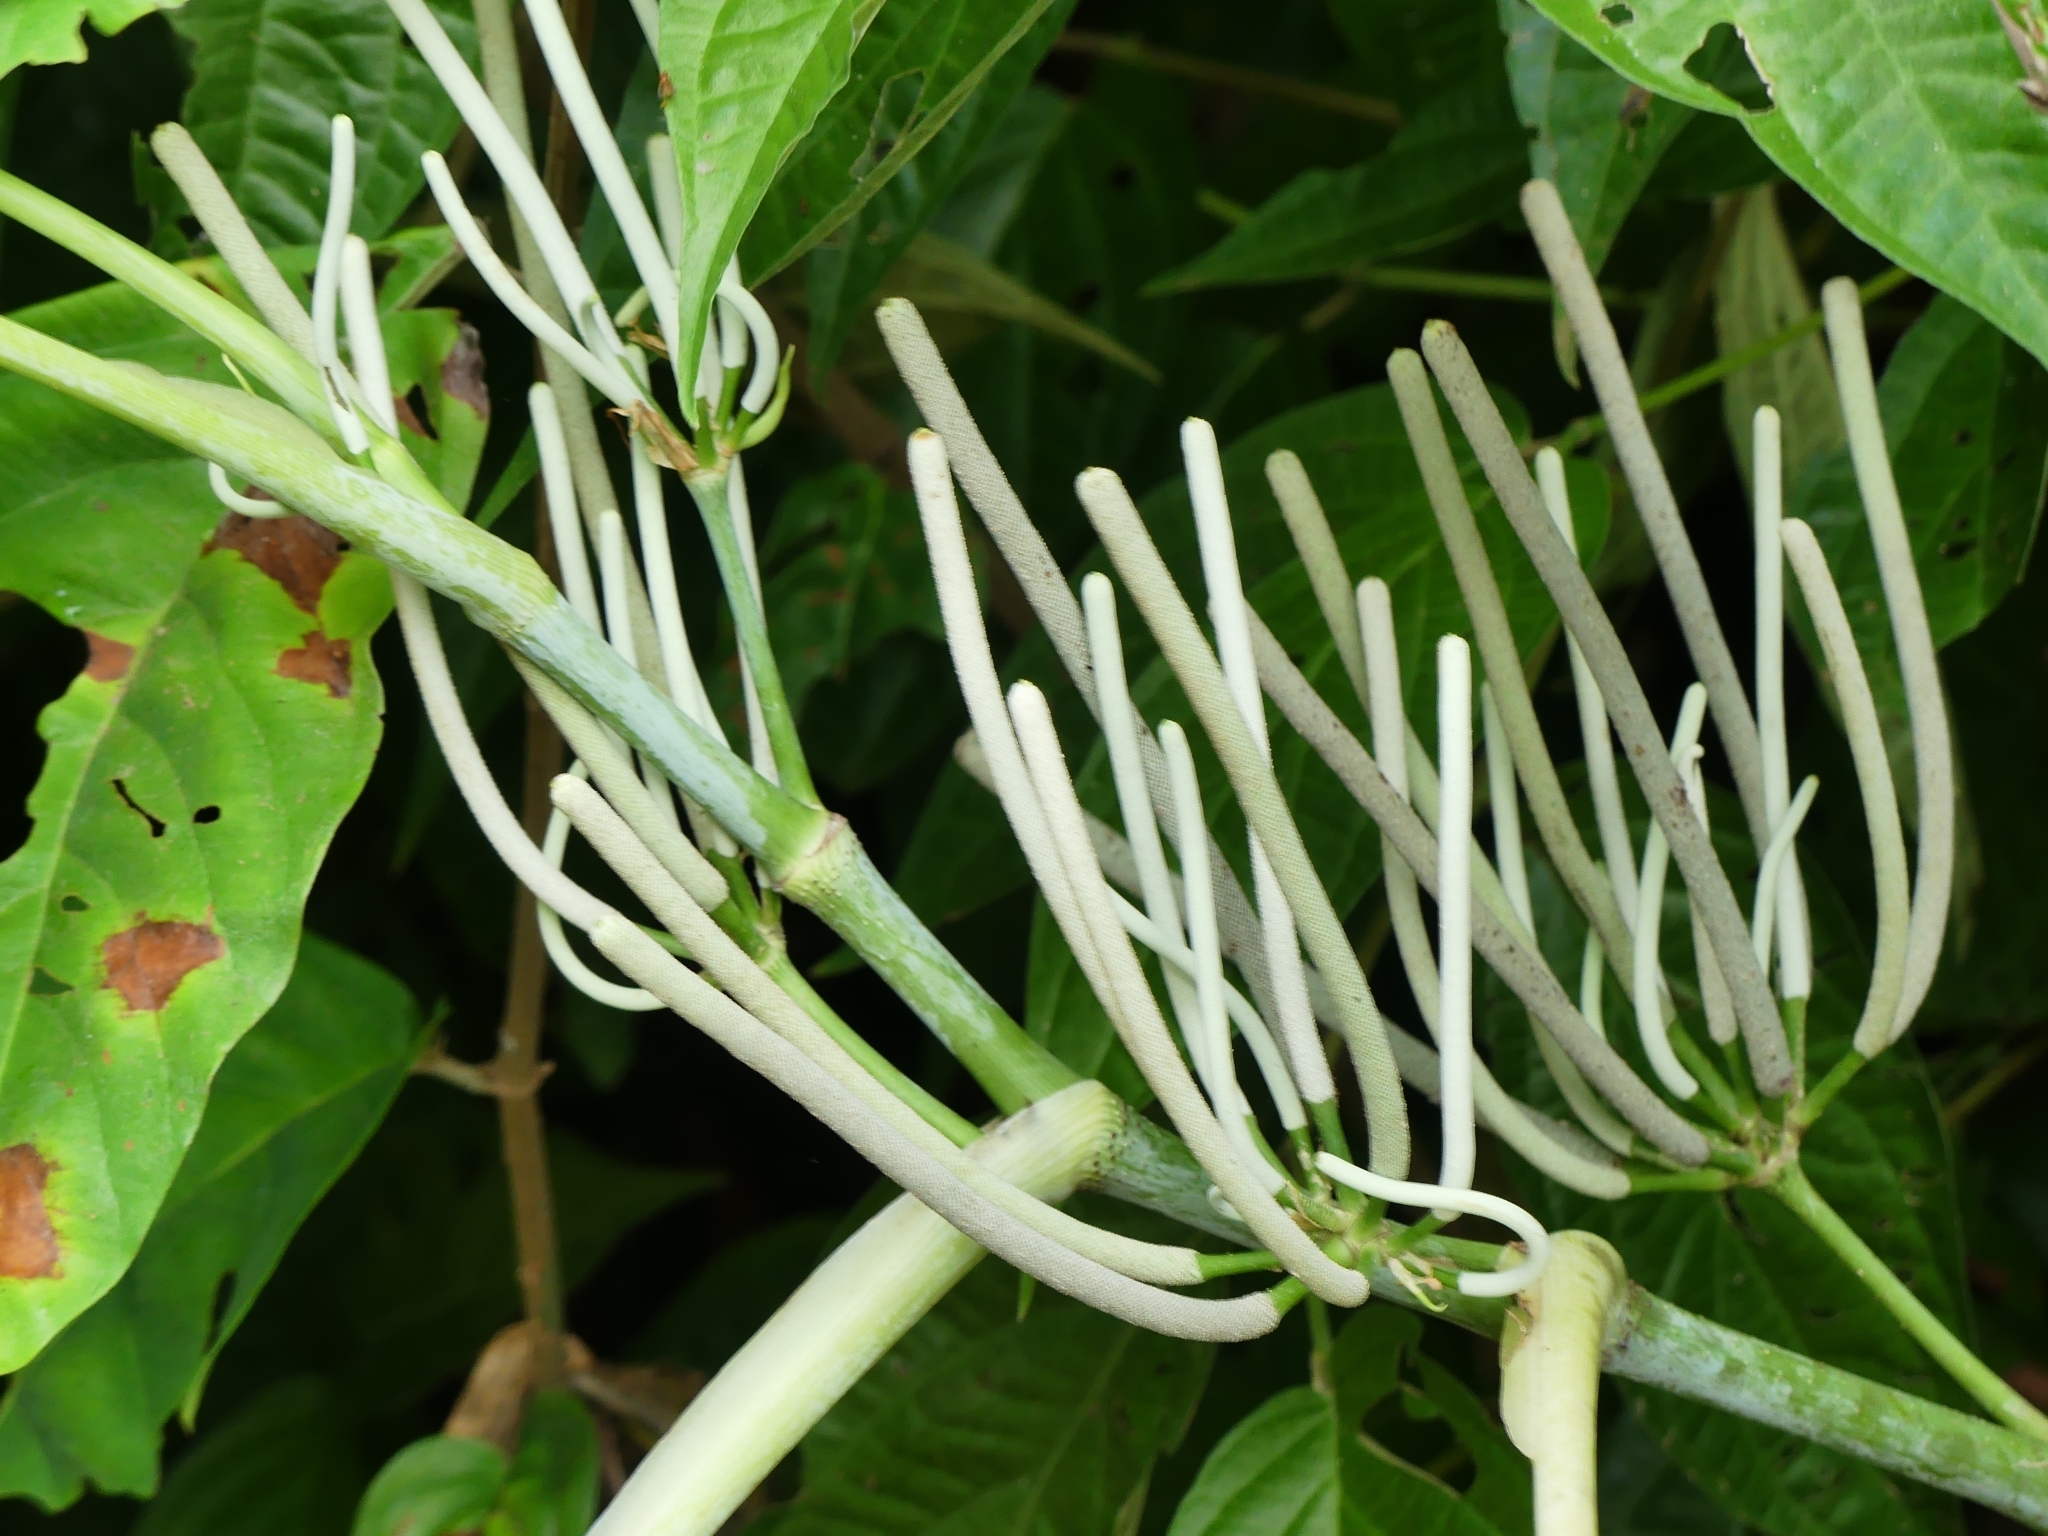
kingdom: Plantae
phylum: Tracheophyta
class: Magnoliopsida
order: Piperales
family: Piperaceae
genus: Piper
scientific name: Piper peltatum
